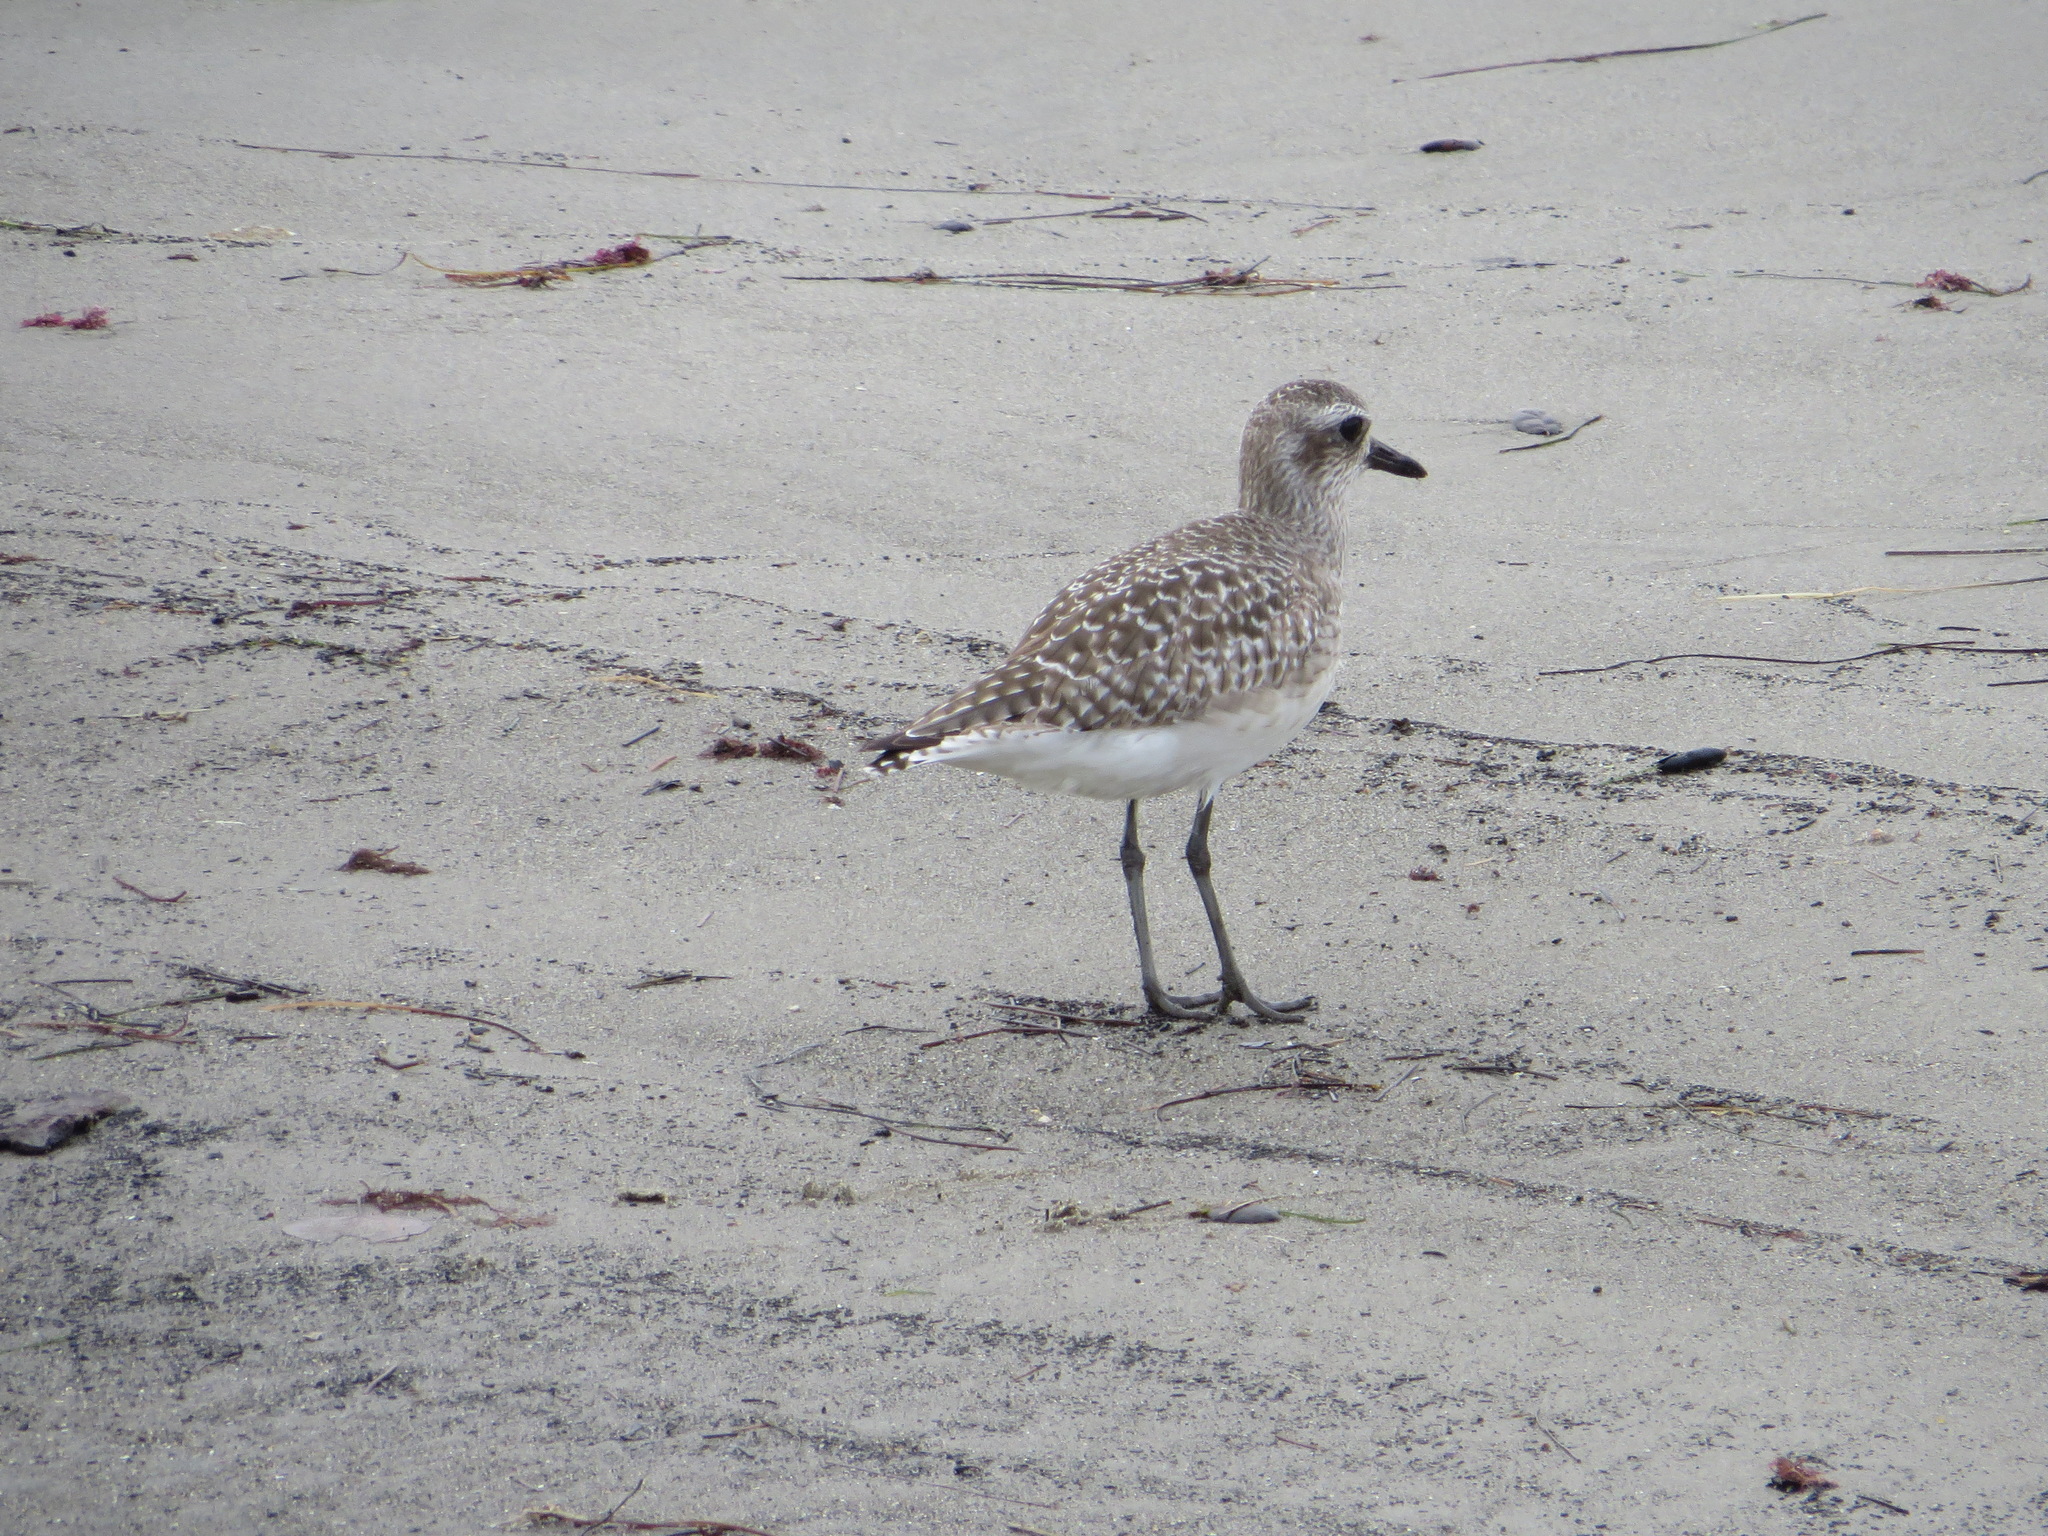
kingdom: Animalia
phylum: Chordata
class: Aves
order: Charadriiformes
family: Charadriidae
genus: Pluvialis
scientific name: Pluvialis squatarola
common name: Grey plover
